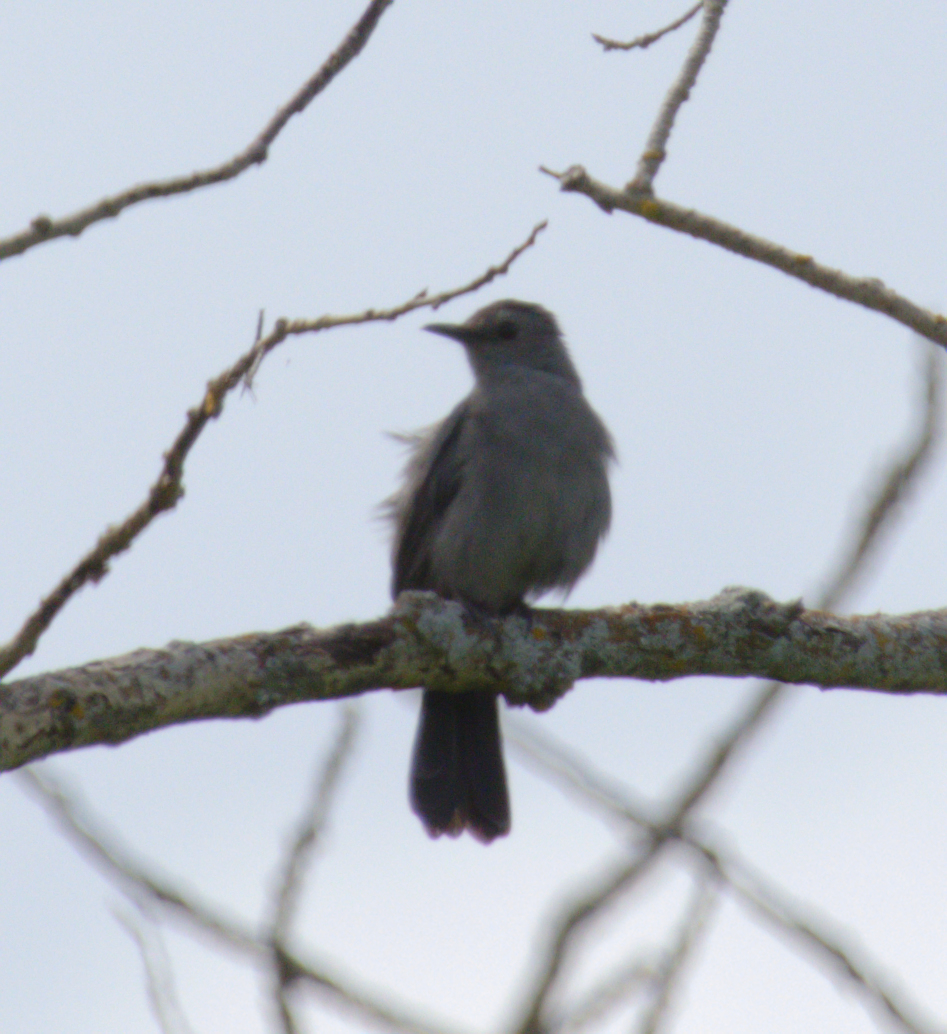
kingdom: Animalia
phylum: Chordata
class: Aves
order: Passeriformes
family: Mimidae
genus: Dumetella
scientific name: Dumetella carolinensis
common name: Gray catbird
